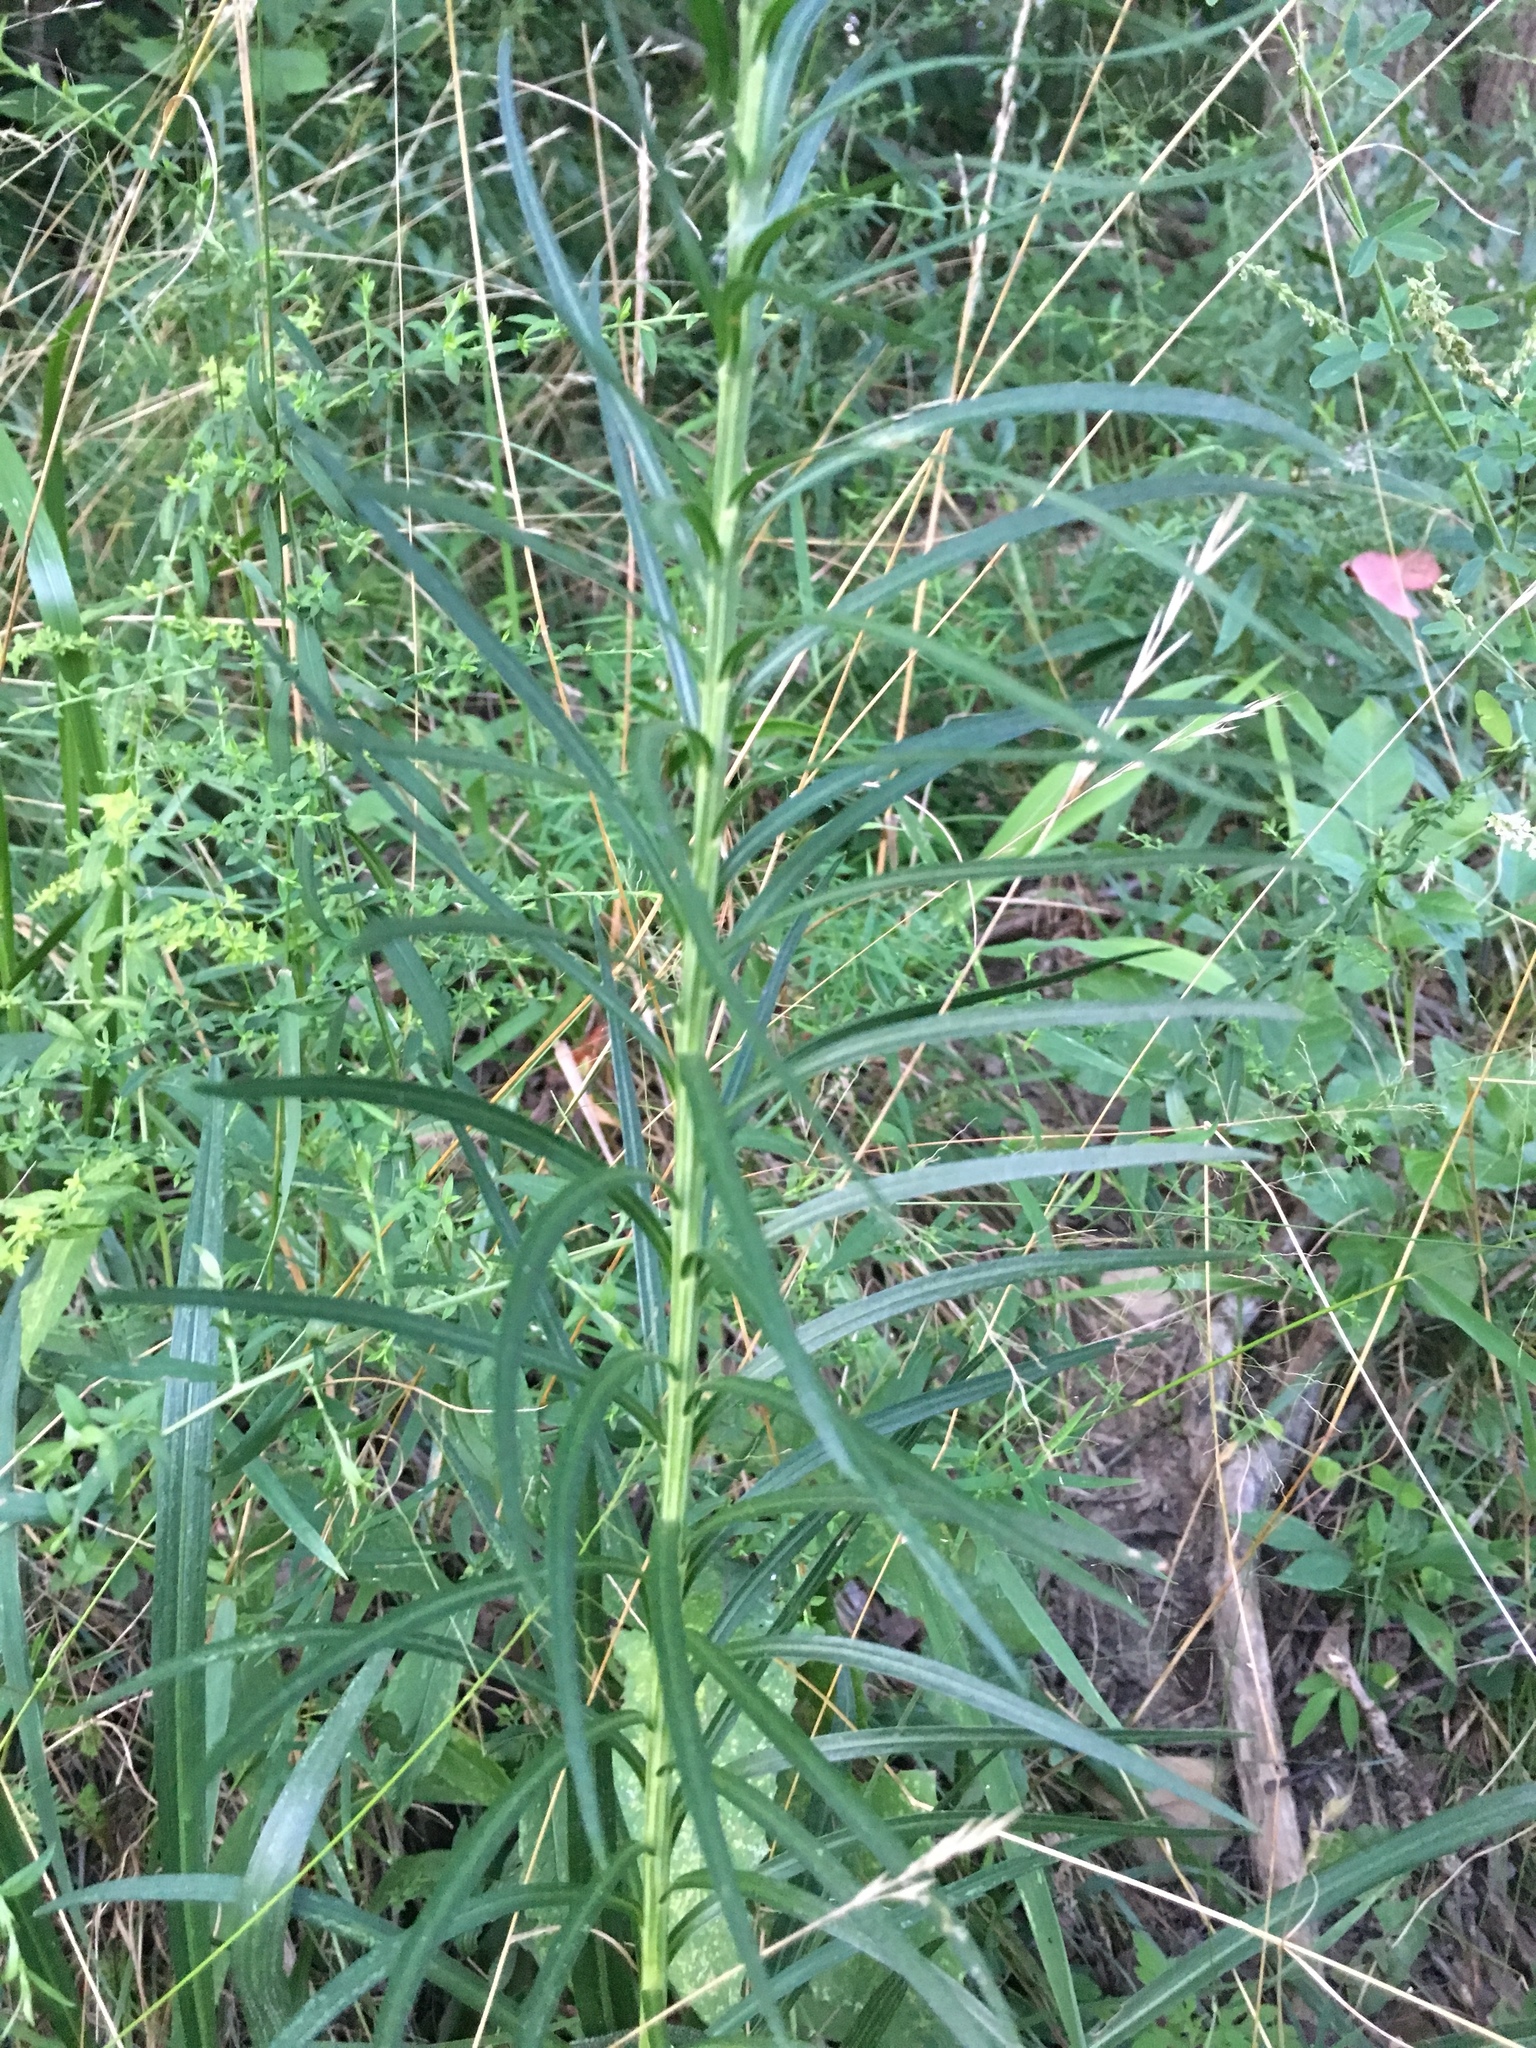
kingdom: Plantae
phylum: Tracheophyta
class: Magnoliopsida
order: Asterales
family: Asteraceae
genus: Liatris
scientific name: Liatris spicata
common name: Florist gayfeather
